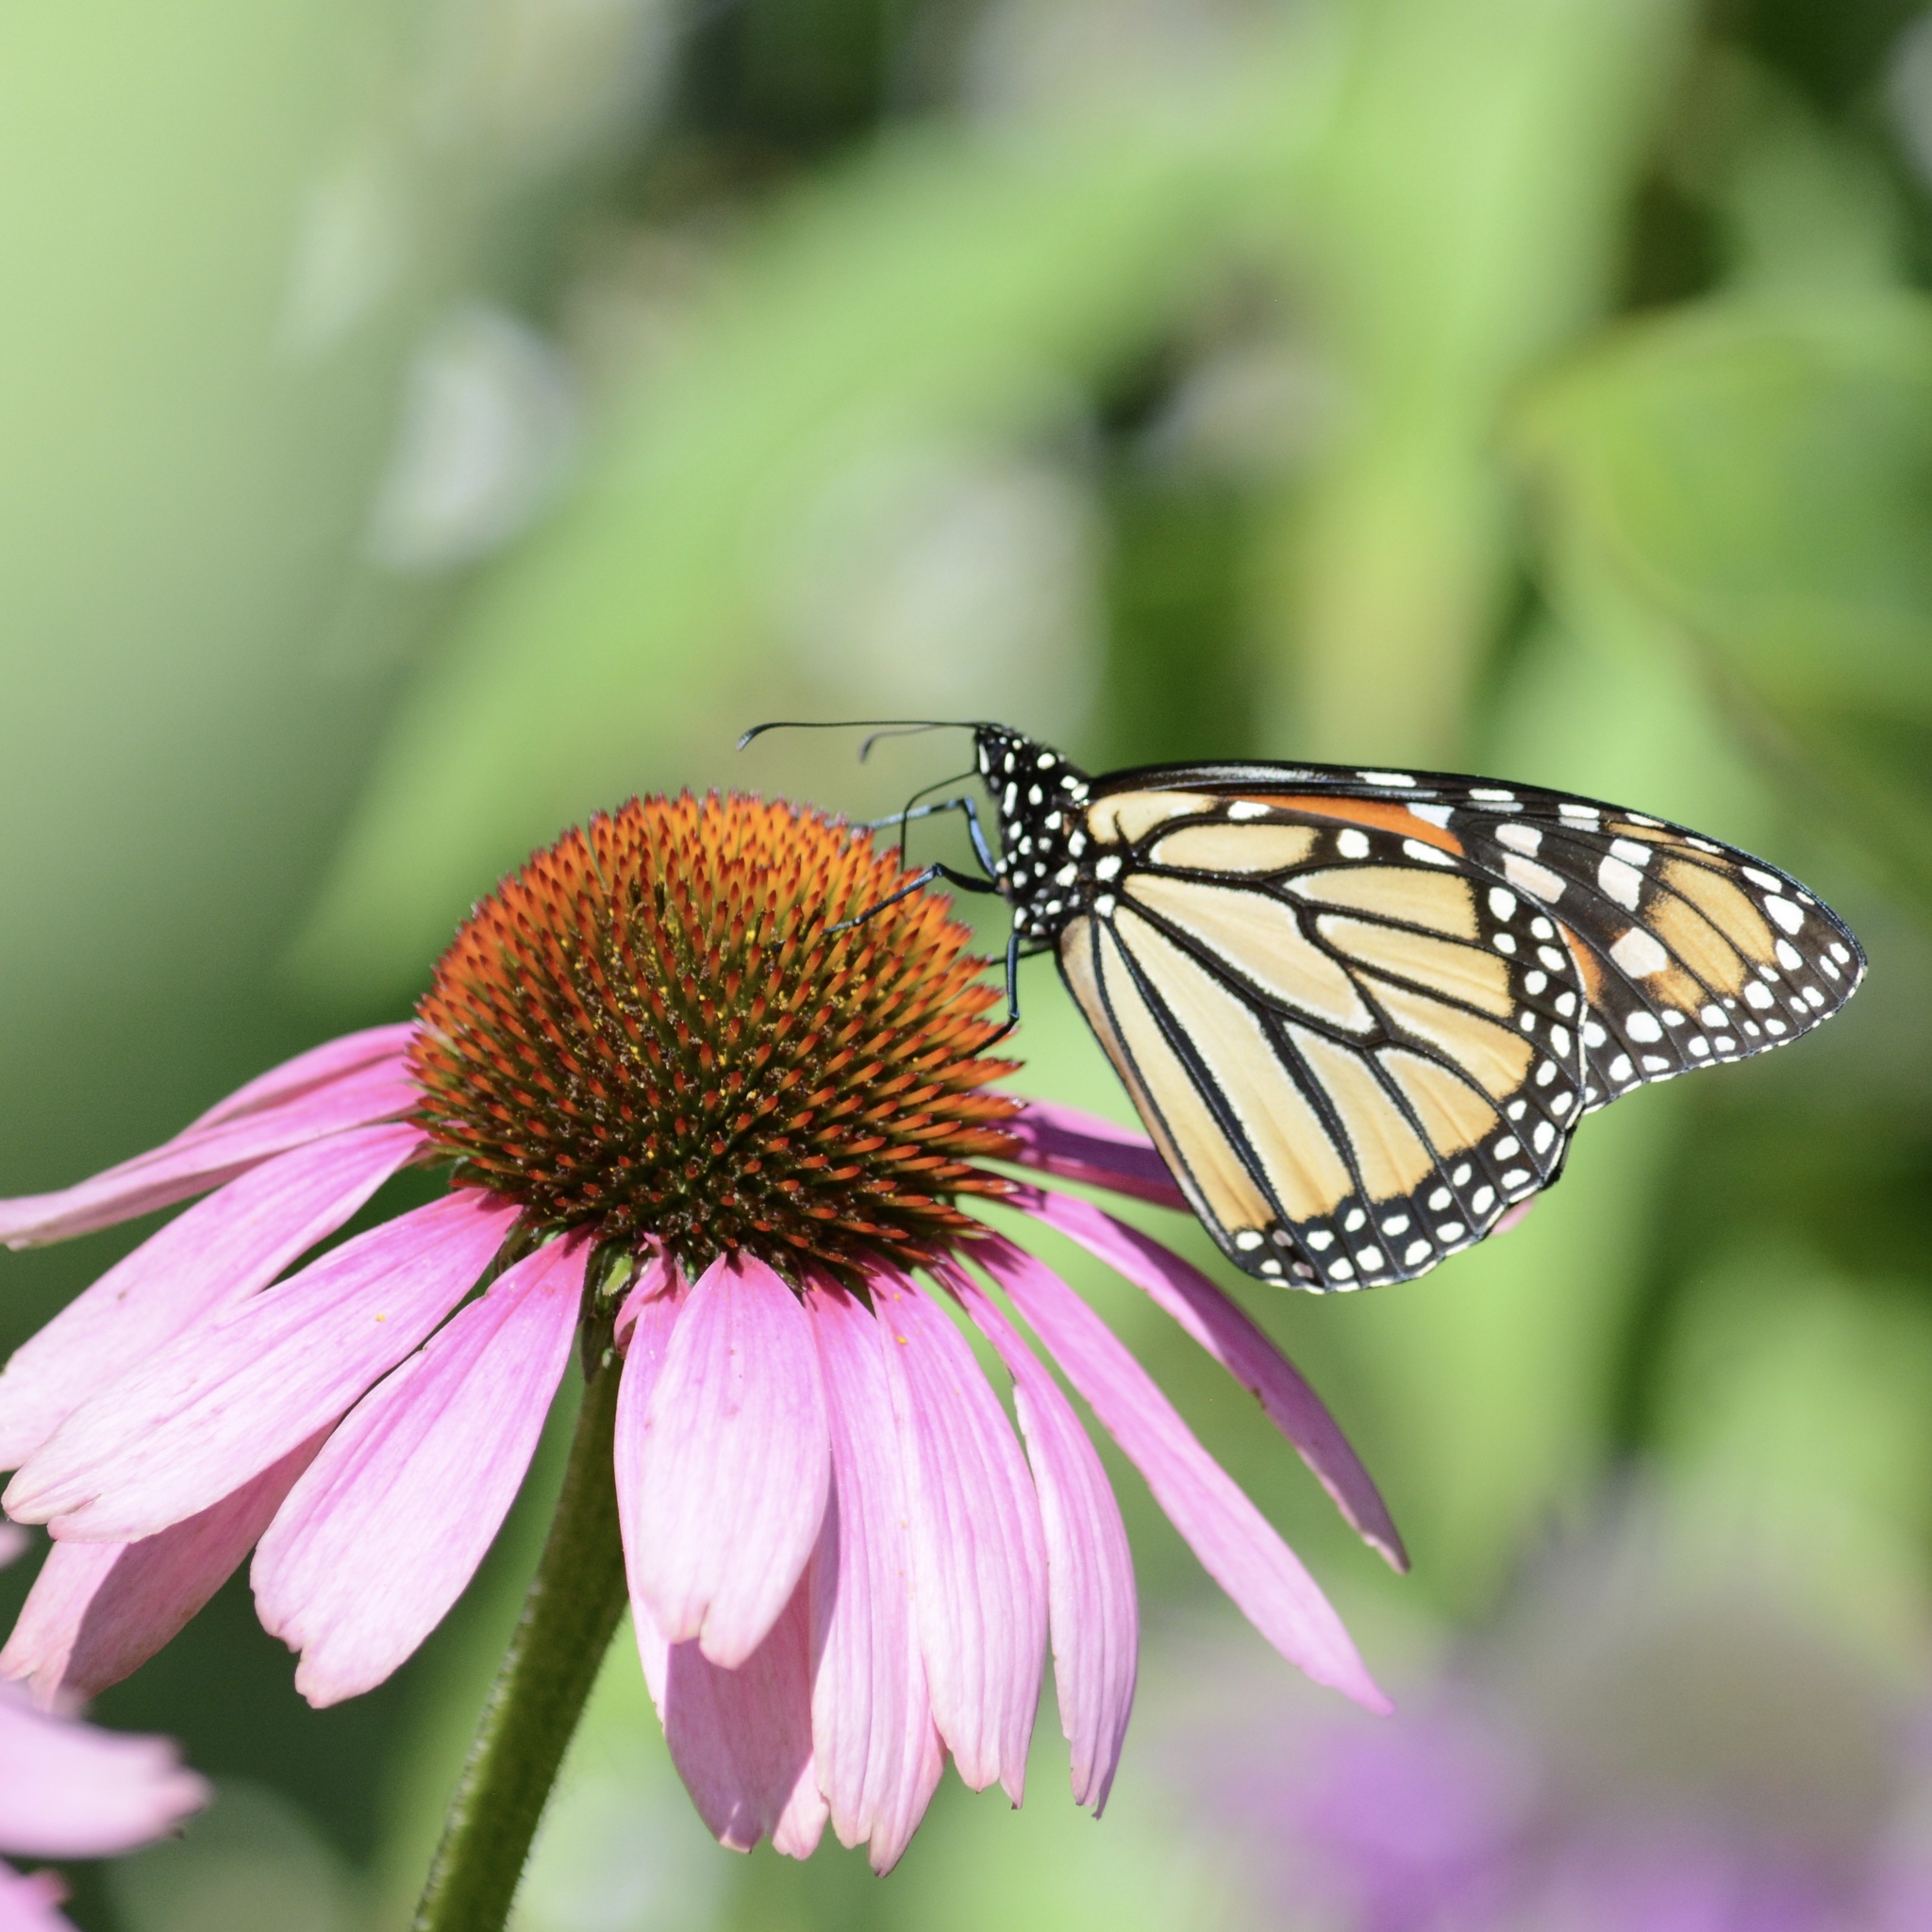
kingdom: Animalia
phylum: Arthropoda
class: Insecta
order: Lepidoptera
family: Nymphalidae
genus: Danaus
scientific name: Danaus plexippus
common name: Monarch
